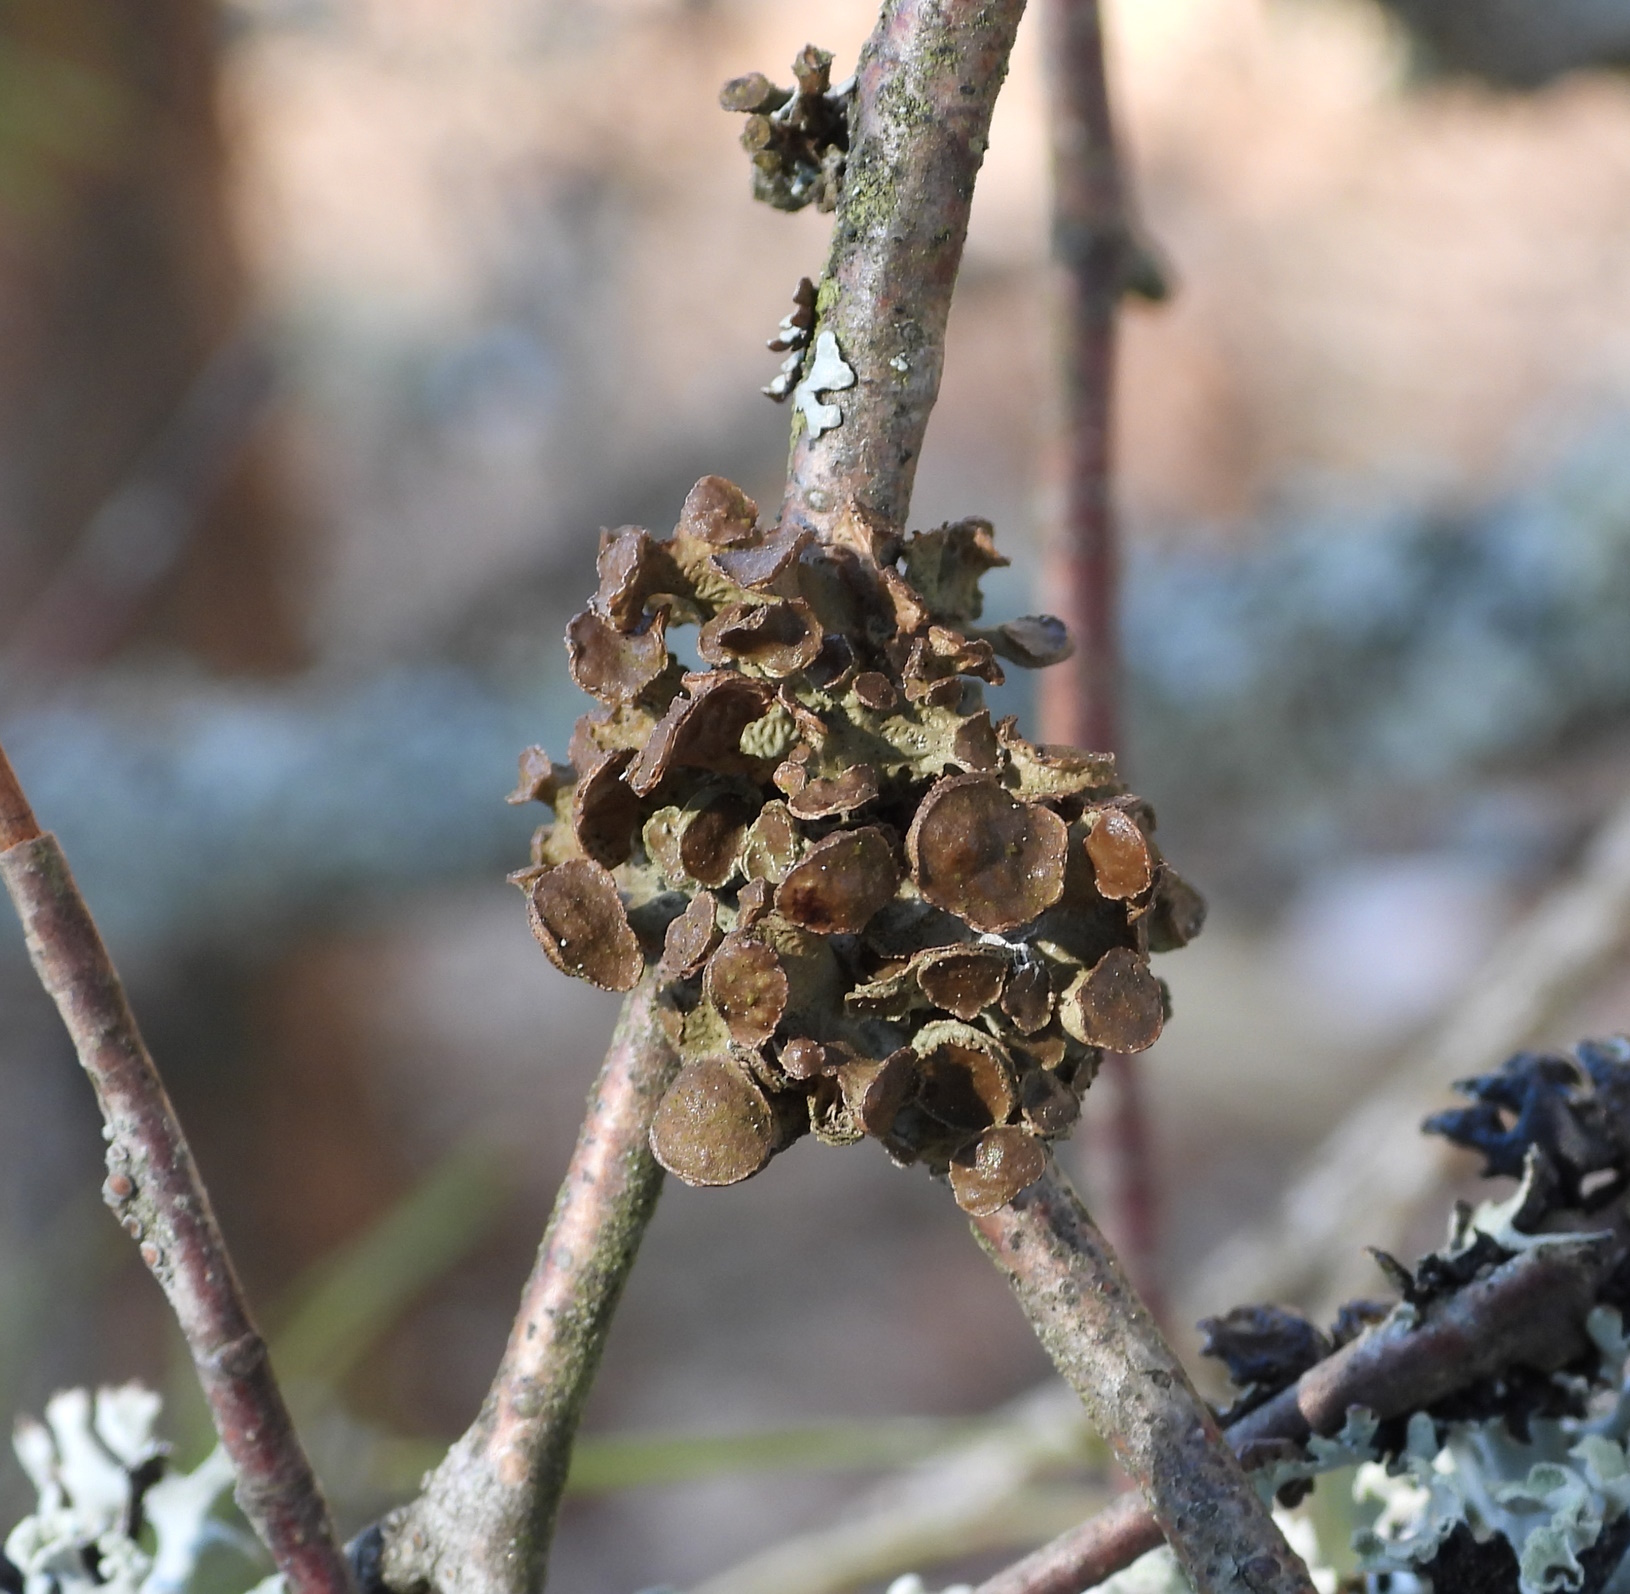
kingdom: Fungi
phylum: Ascomycota
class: Lecanoromycetes
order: Lecanorales
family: Parmeliaceae
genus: Cetraria
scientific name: Cetraria sepincola
